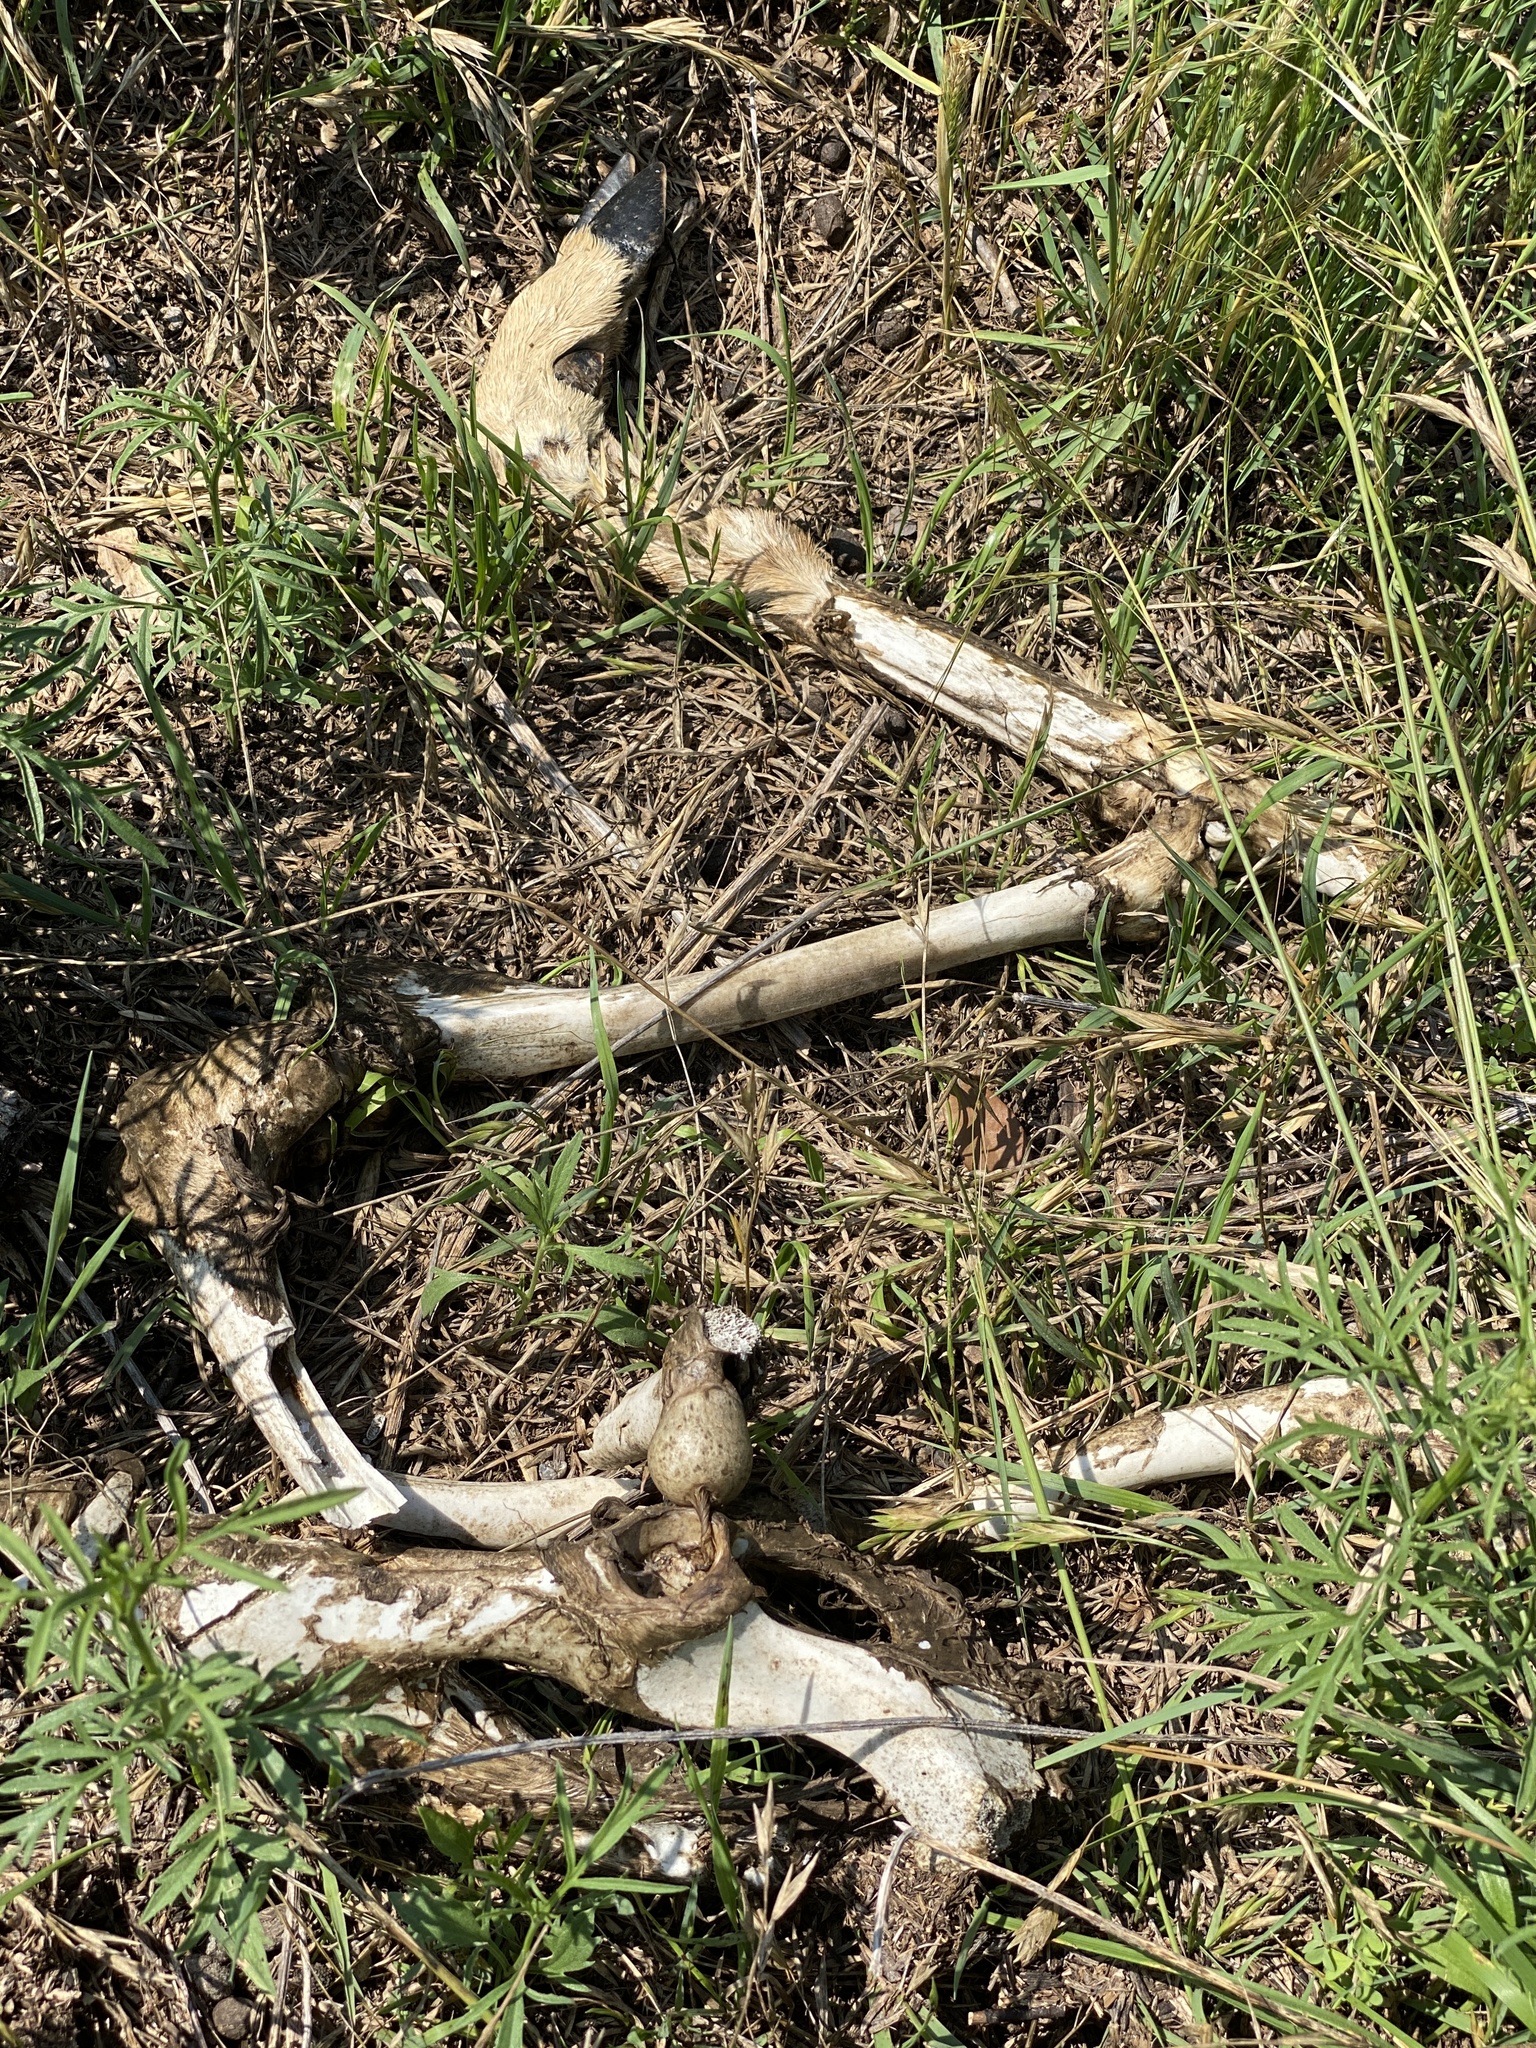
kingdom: Animalia
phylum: Chordata
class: Mammalia
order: Artiodactyla
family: Cervidae
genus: Odocoileus
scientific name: Odocoileus virginianus
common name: White-tailed deer
